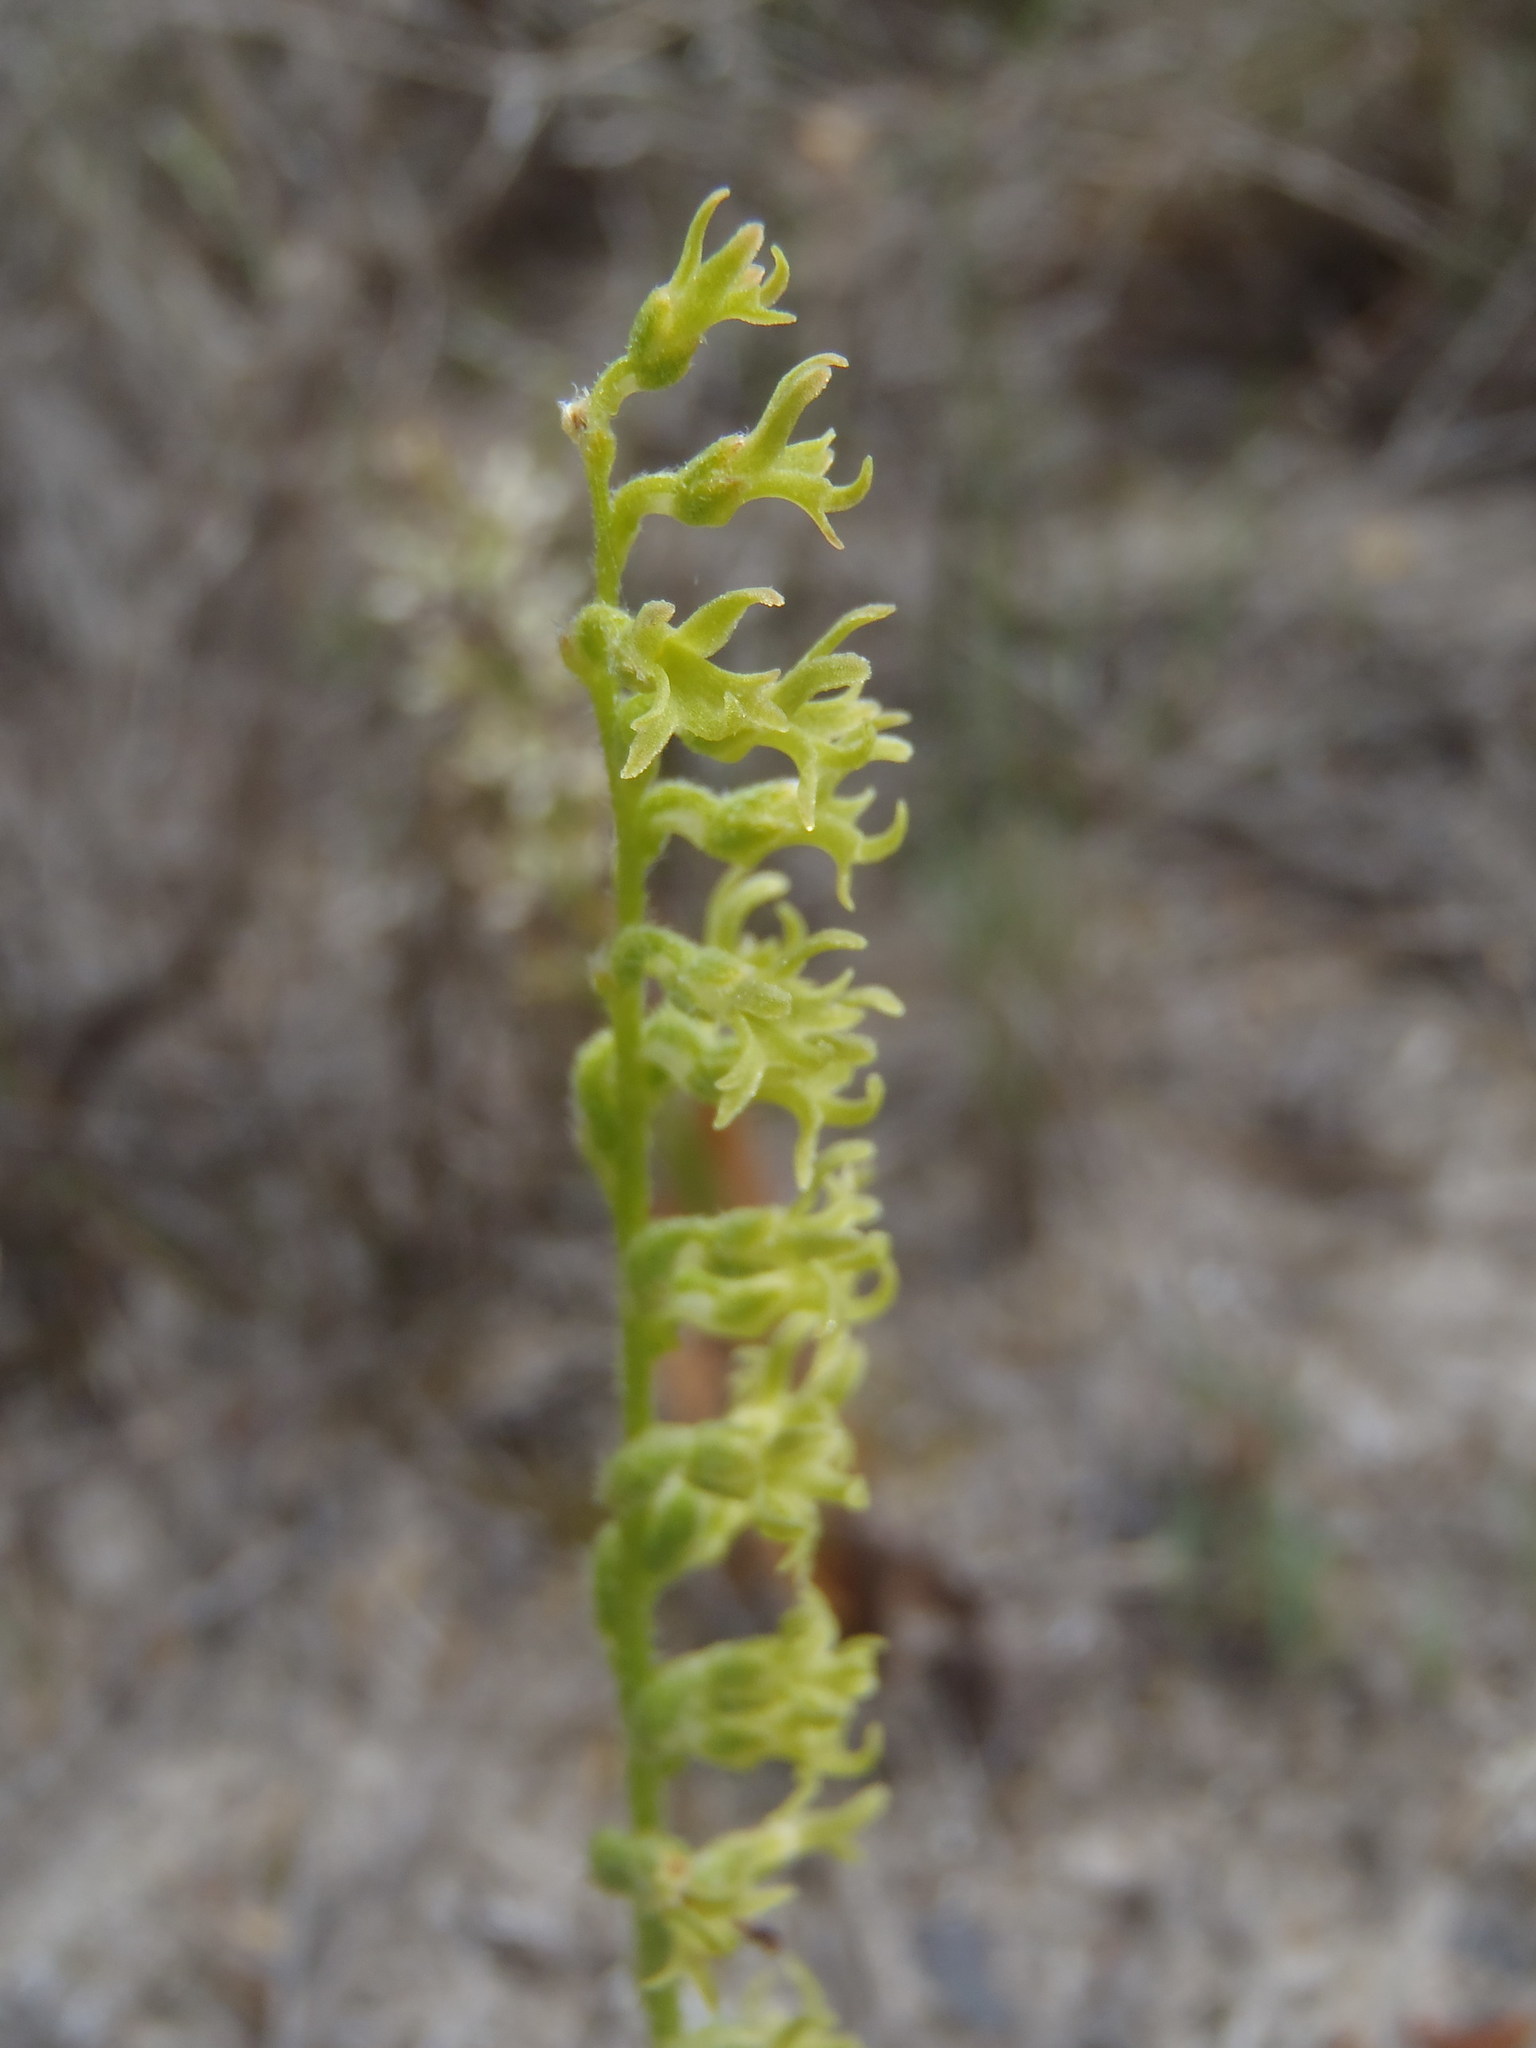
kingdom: Plantae
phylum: Tracheophyta
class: Liliopsida
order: Asparagales
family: Orchidaceae
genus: Holothrix
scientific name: Holothrix cernua
